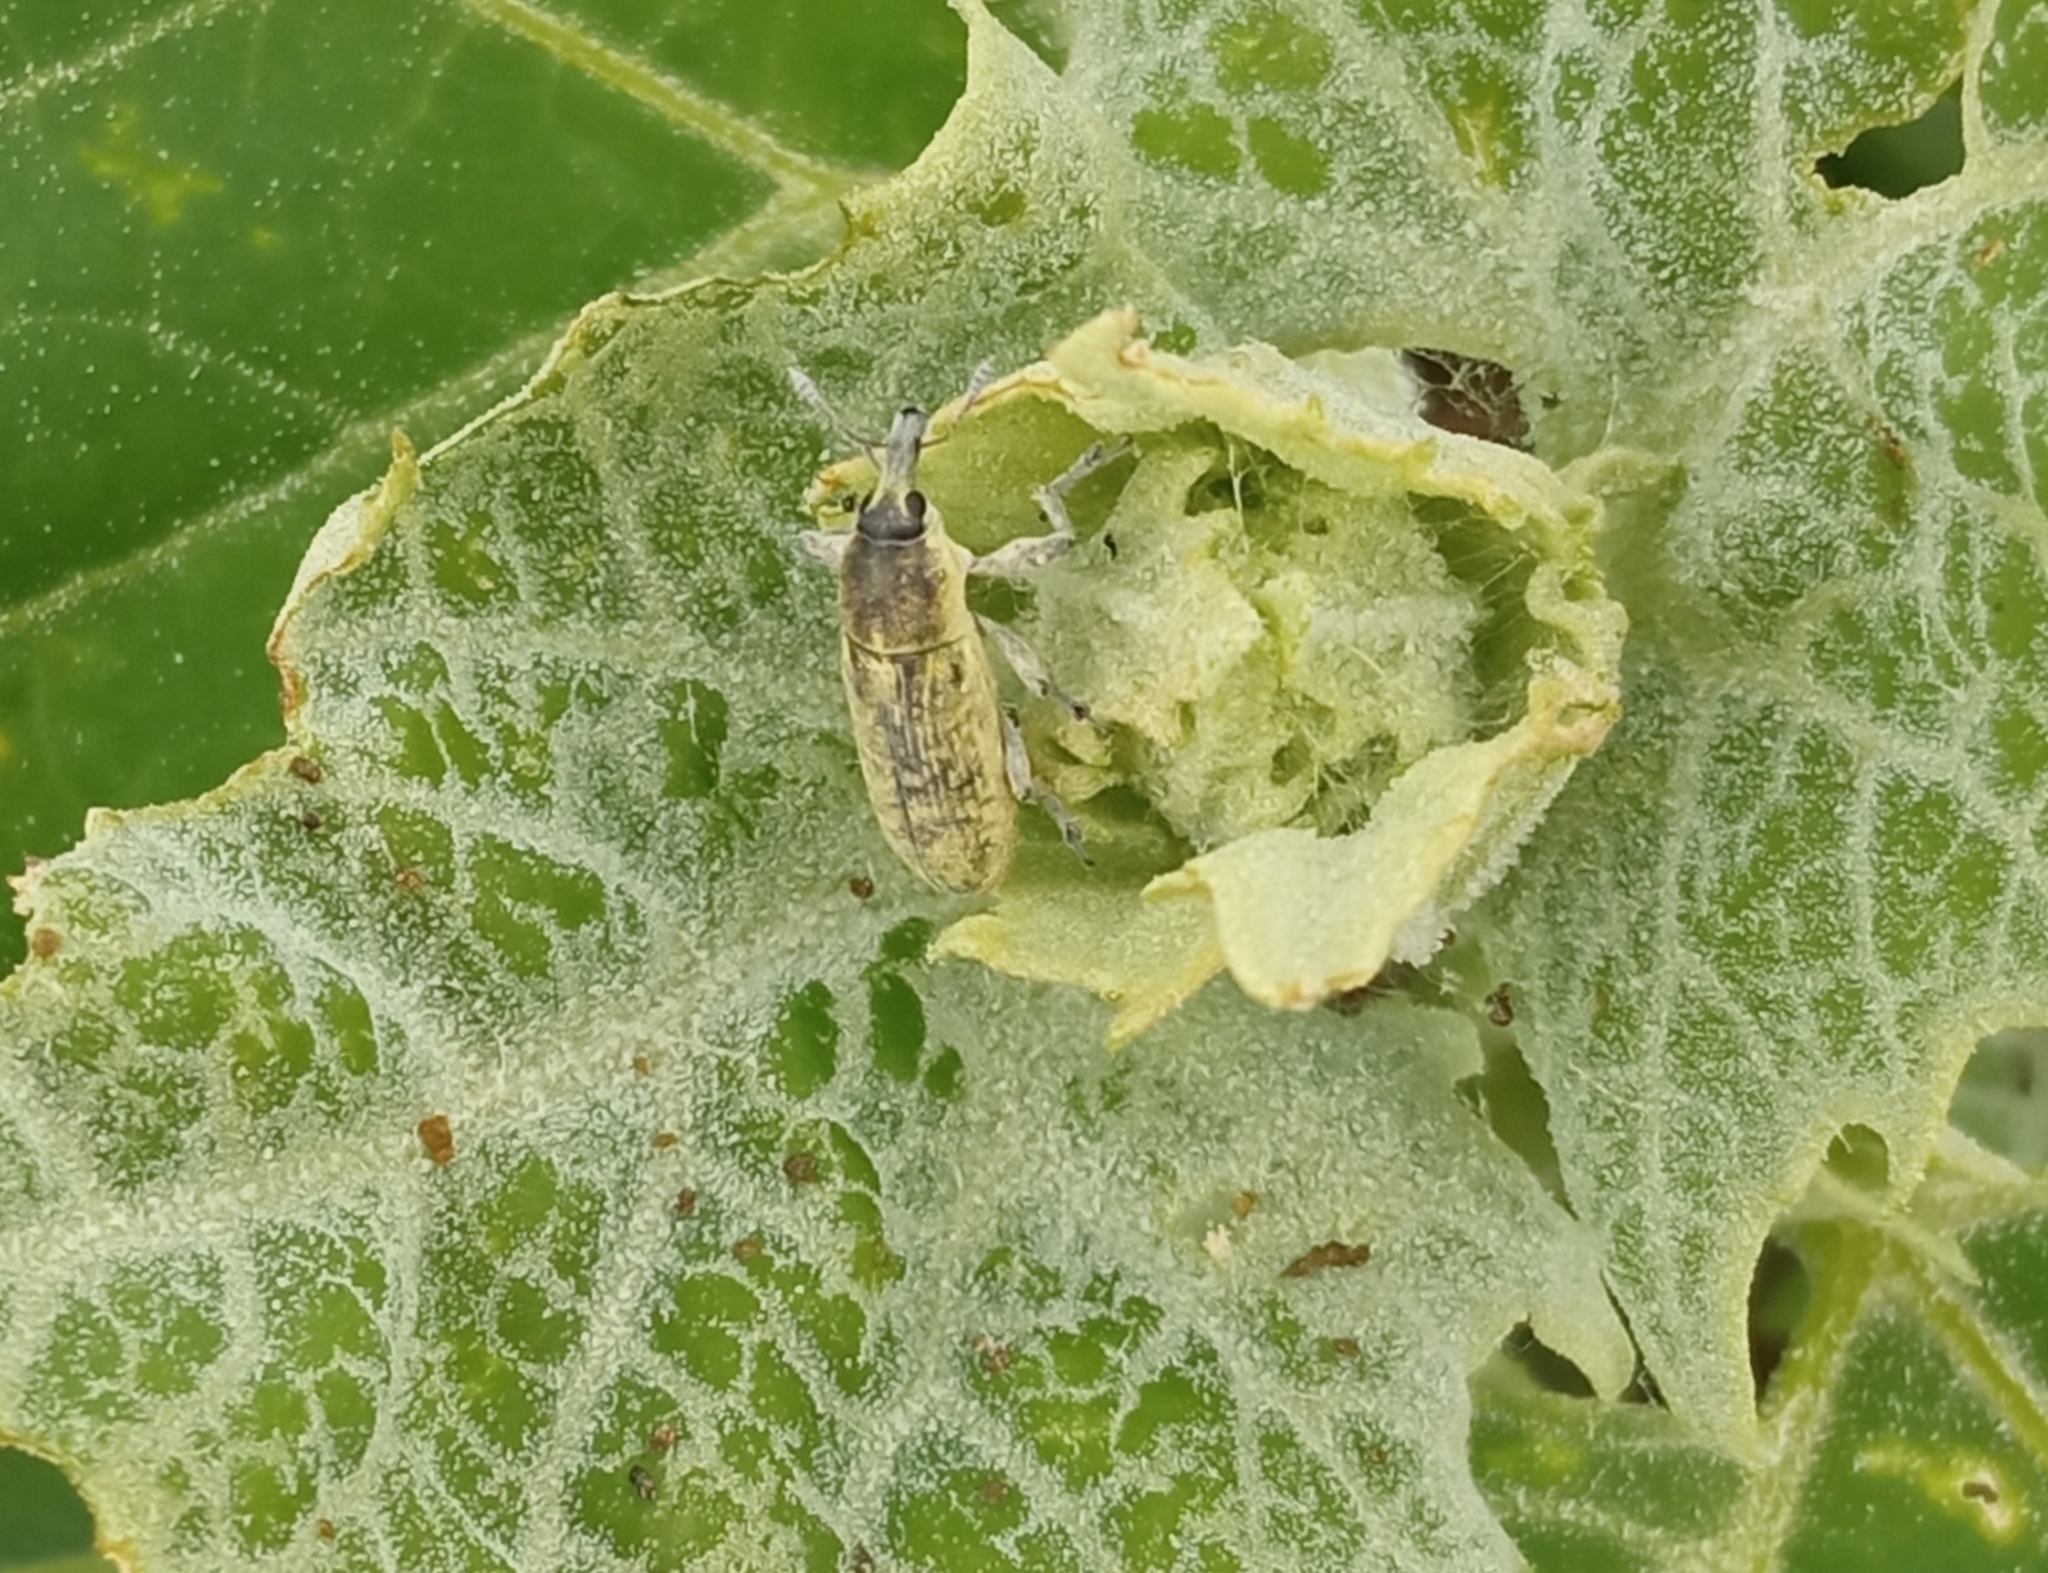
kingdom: Animalia
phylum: Arthropoda
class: Insecta
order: Coleoptera
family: Curculionidae
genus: Lixus
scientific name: Lixus rubicundus
